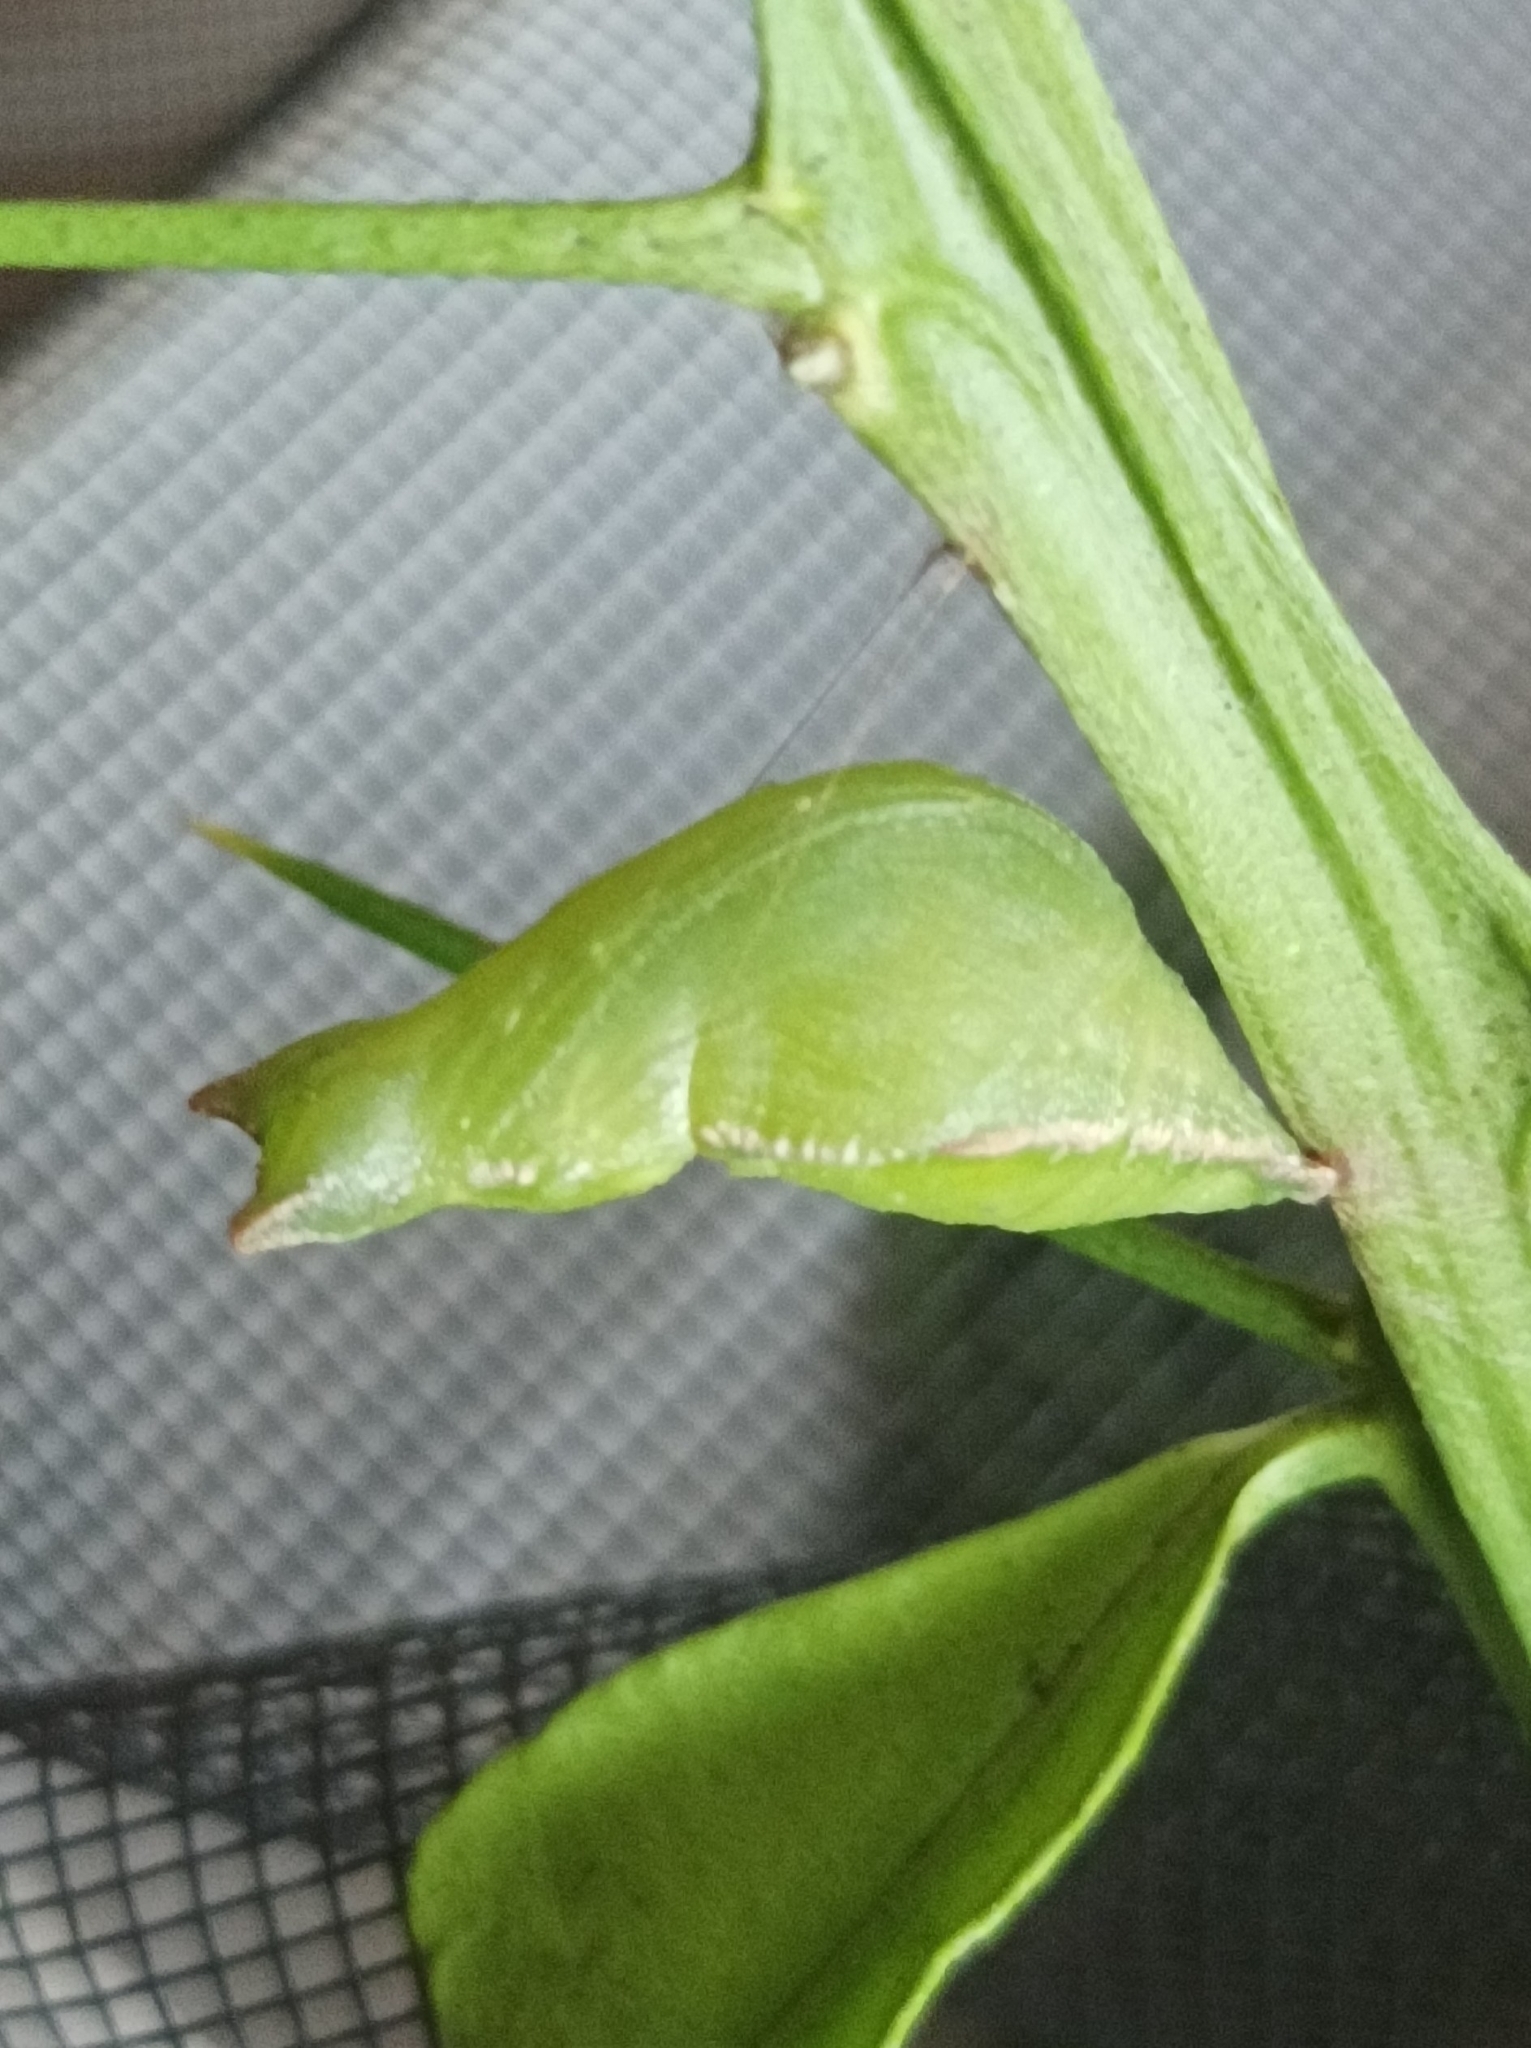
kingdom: Animalia
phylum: Arthropoda
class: Insecta
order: Lepidoptera
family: Papilionidae
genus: Papilio
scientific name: Papilio fuscus
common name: Fuscous swallowtail
